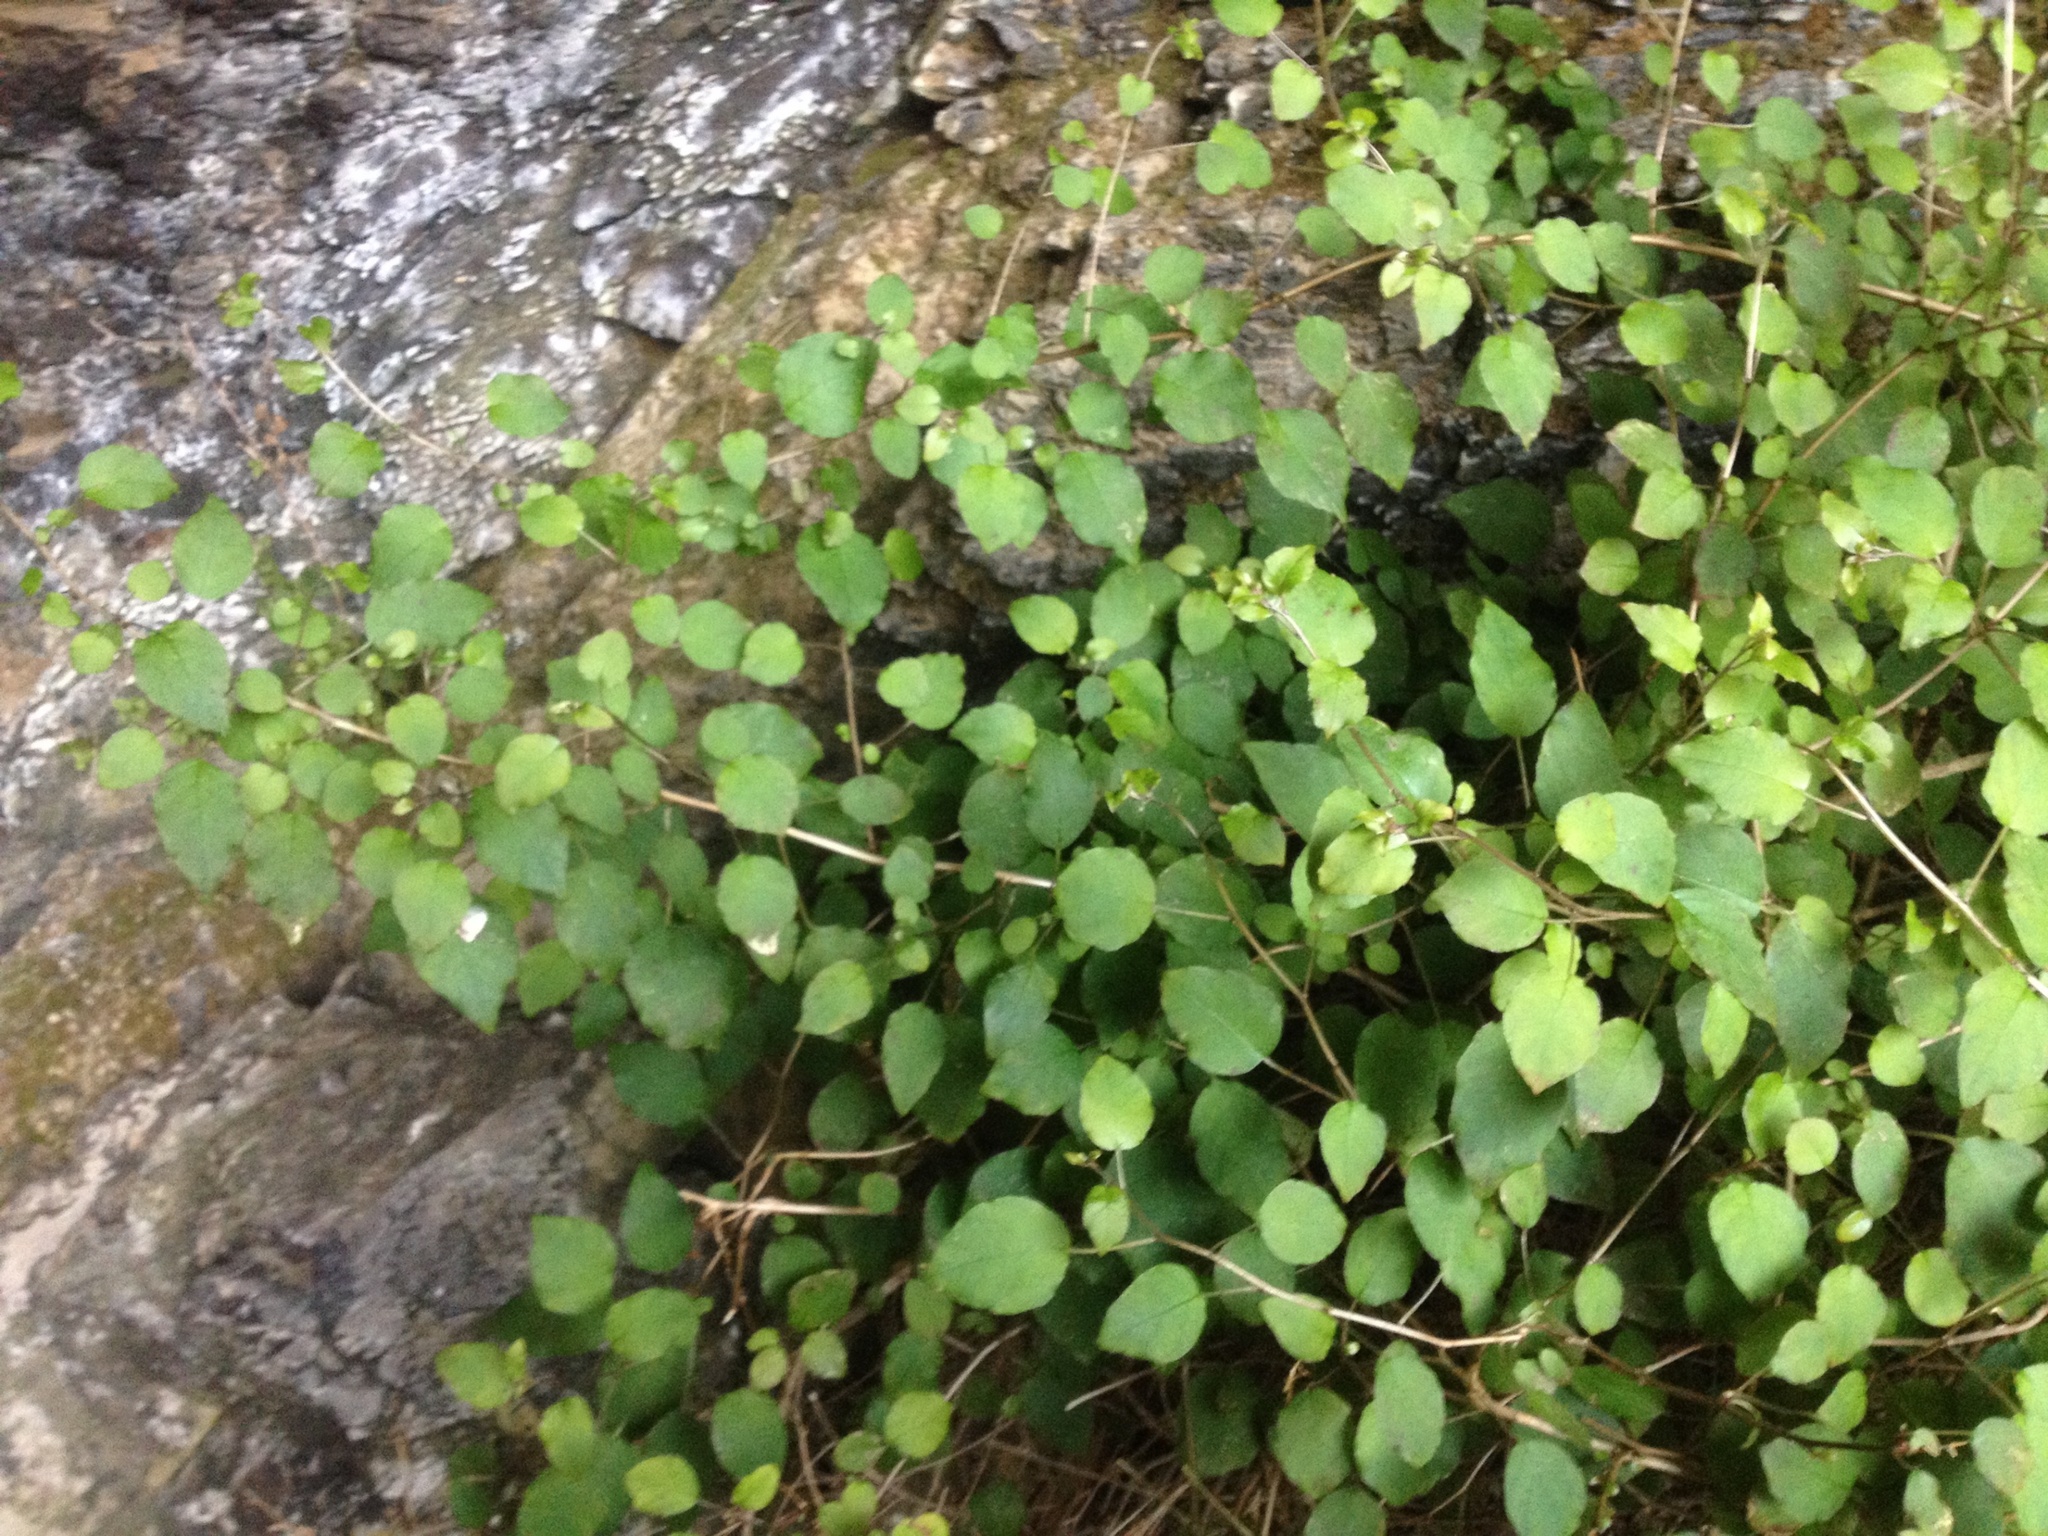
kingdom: Plantae
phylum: Tracheophyta
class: Magnoliopsida
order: Myrtales
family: Onagraceae
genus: Fuchsia
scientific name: Fuchsia colensoi
